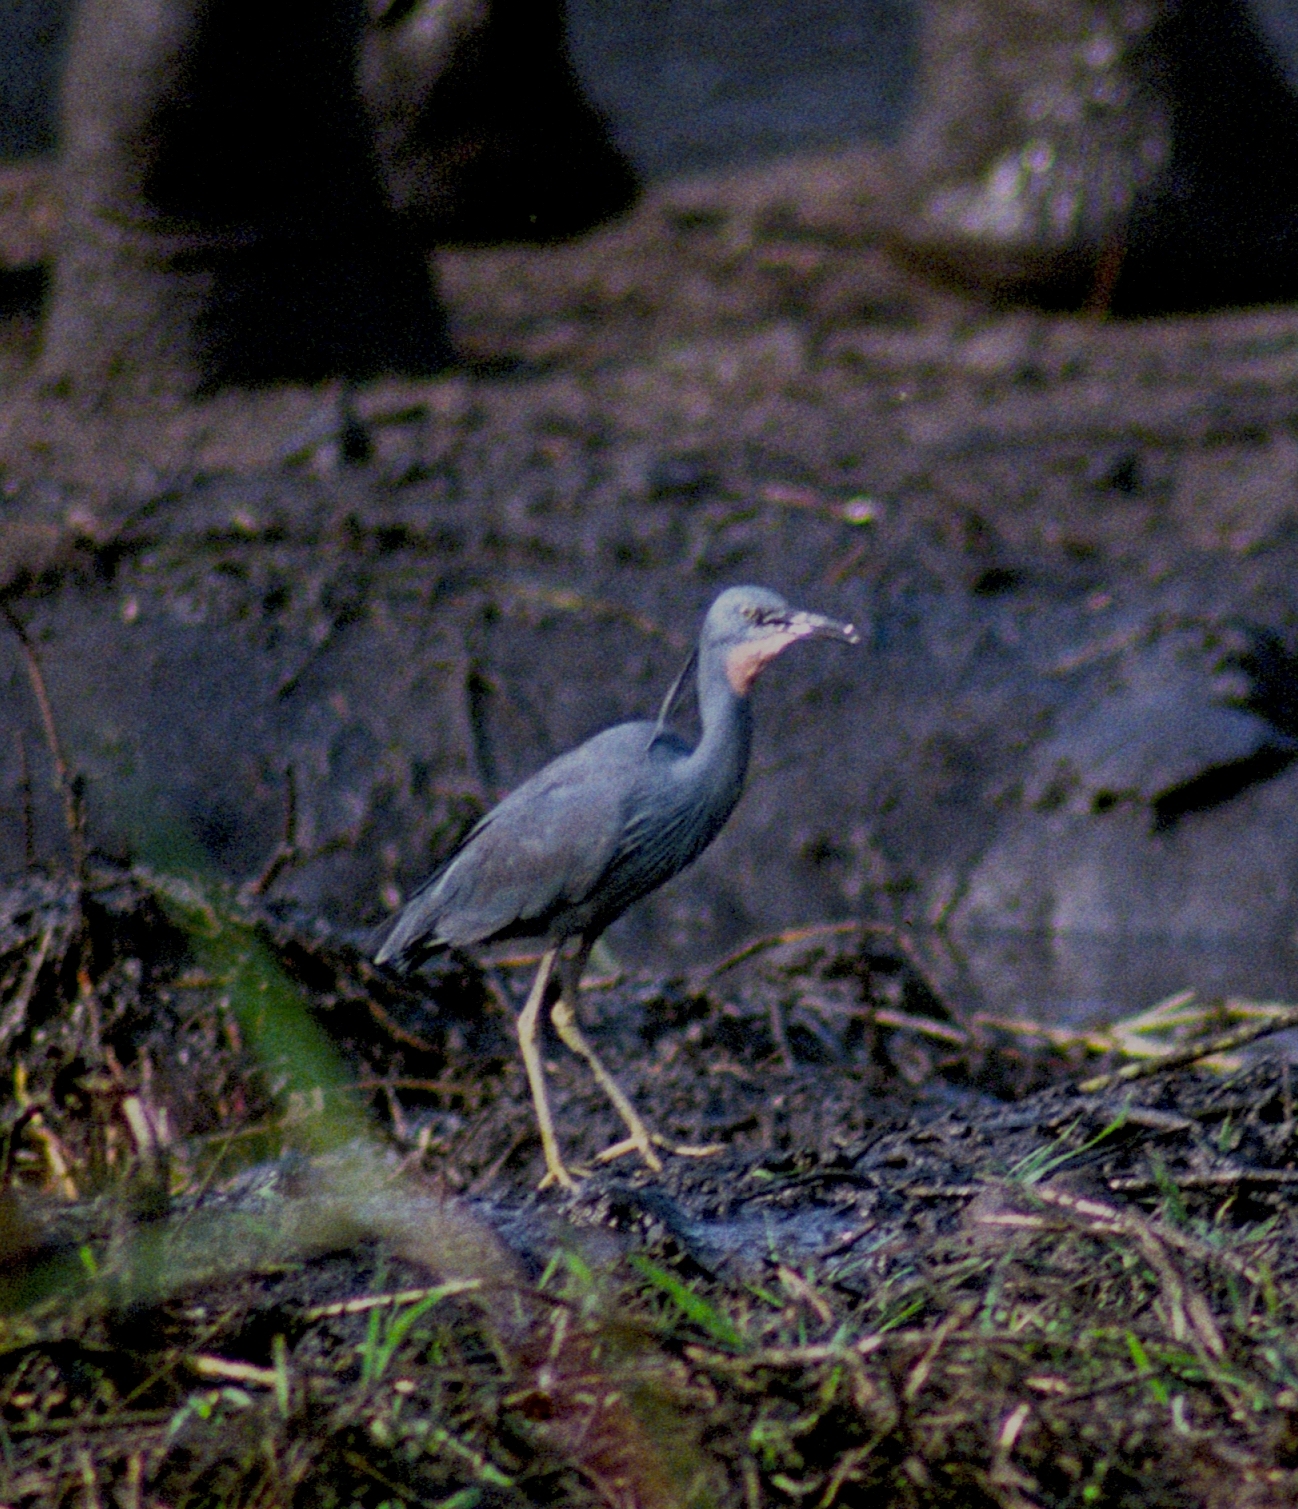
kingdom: Animalia
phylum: Chordata
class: Aves
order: Pelecaniformes
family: Ardeidae
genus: Egretta
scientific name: Egretta vinaceigula
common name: Slaty egret
